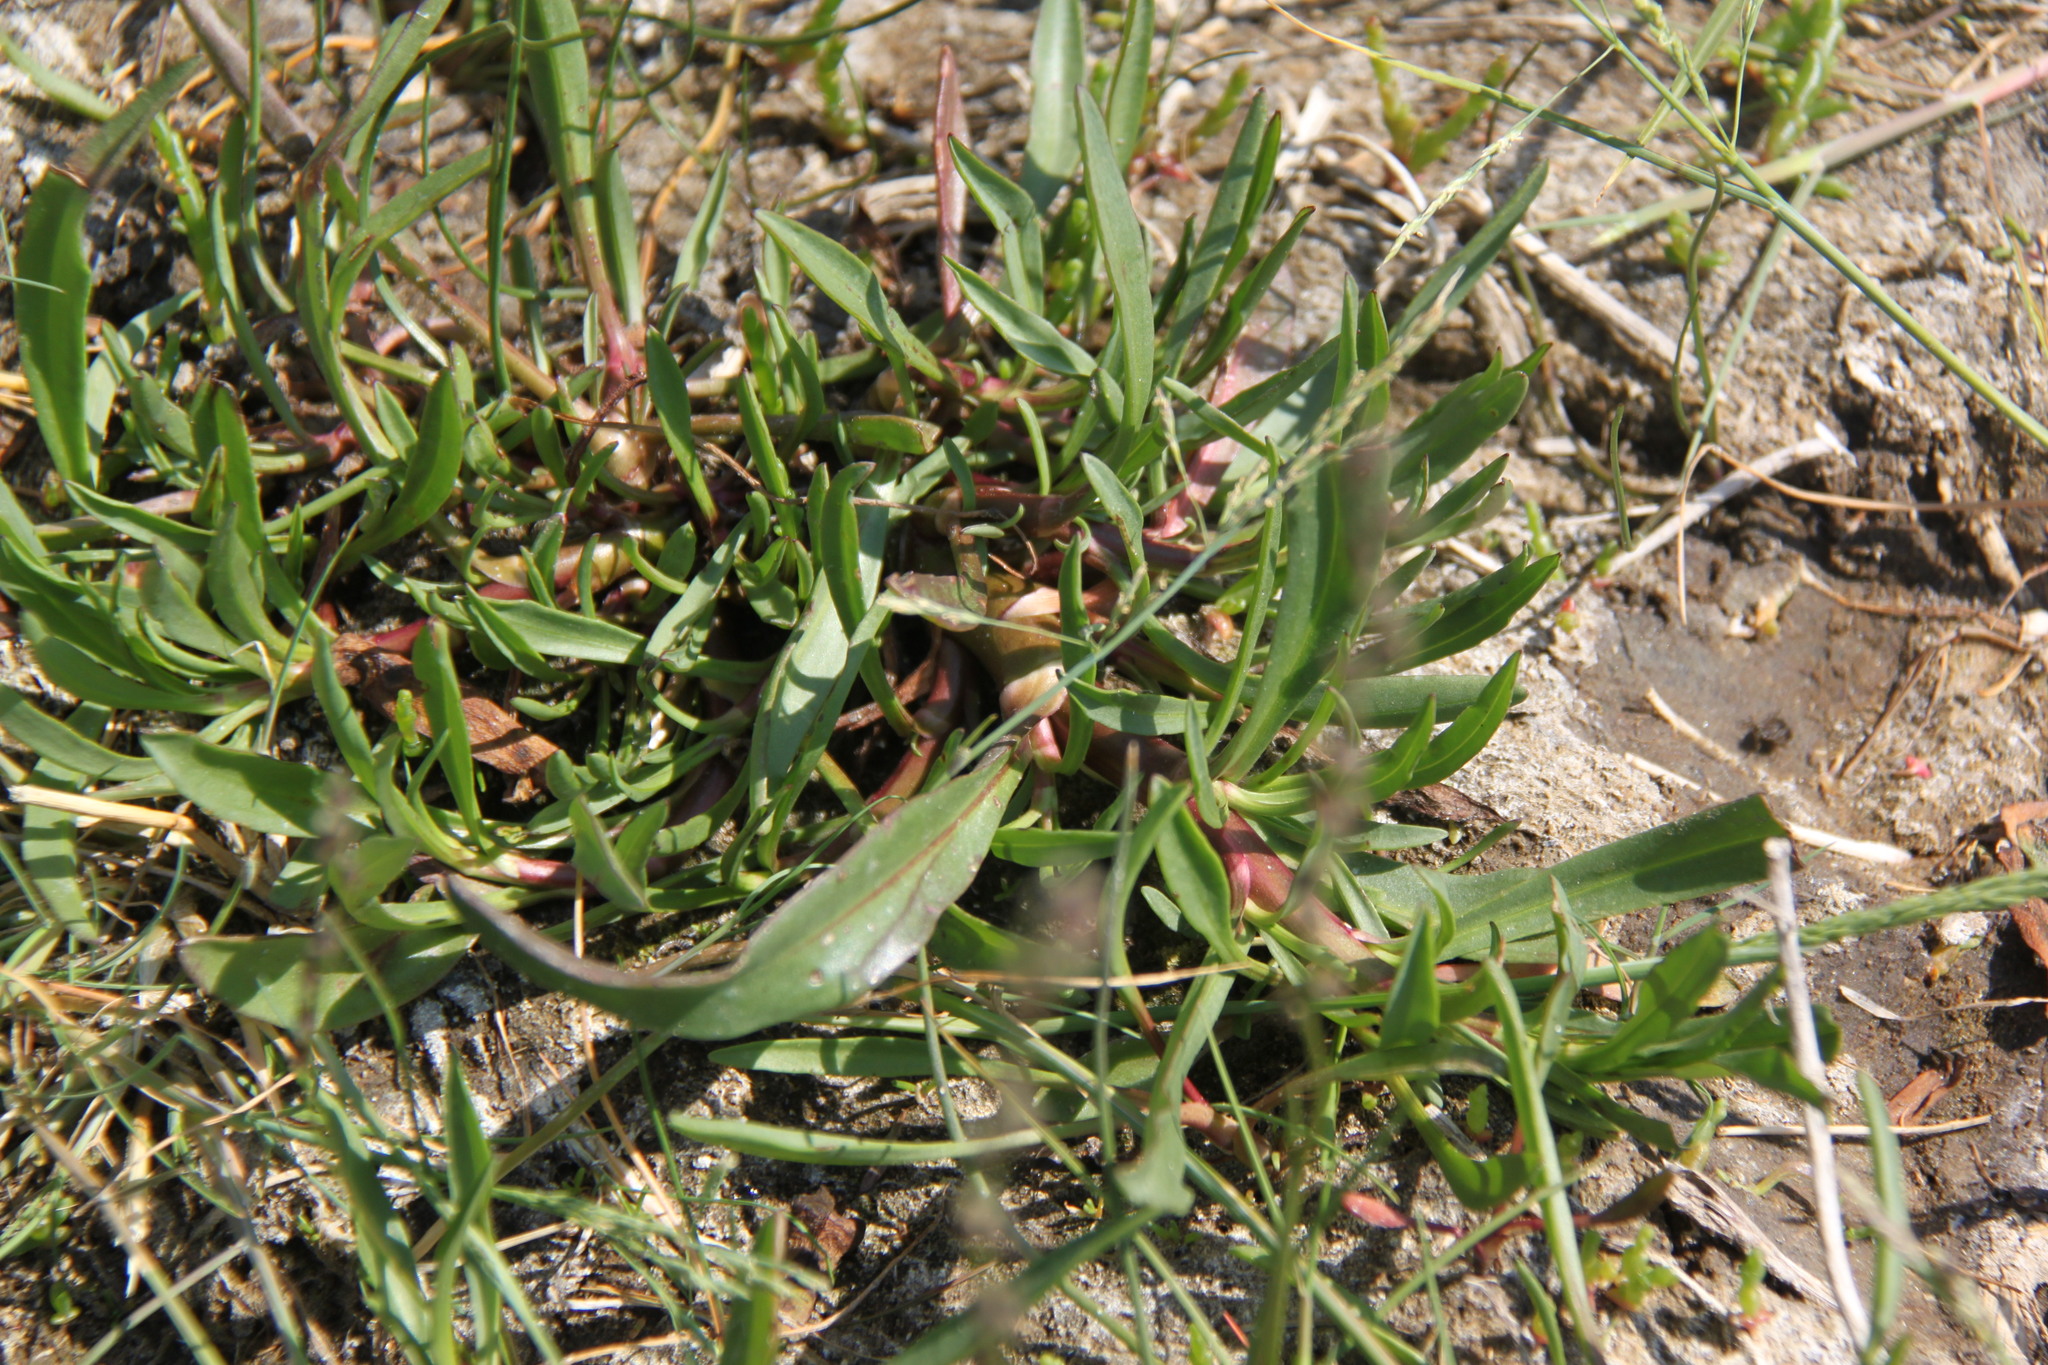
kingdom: Plantae
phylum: Tracheophyta
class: Magnoliopsida
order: Asterales
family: Asteraceae
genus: Tripolium
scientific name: Tripolium pannonicum
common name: Sea aster
